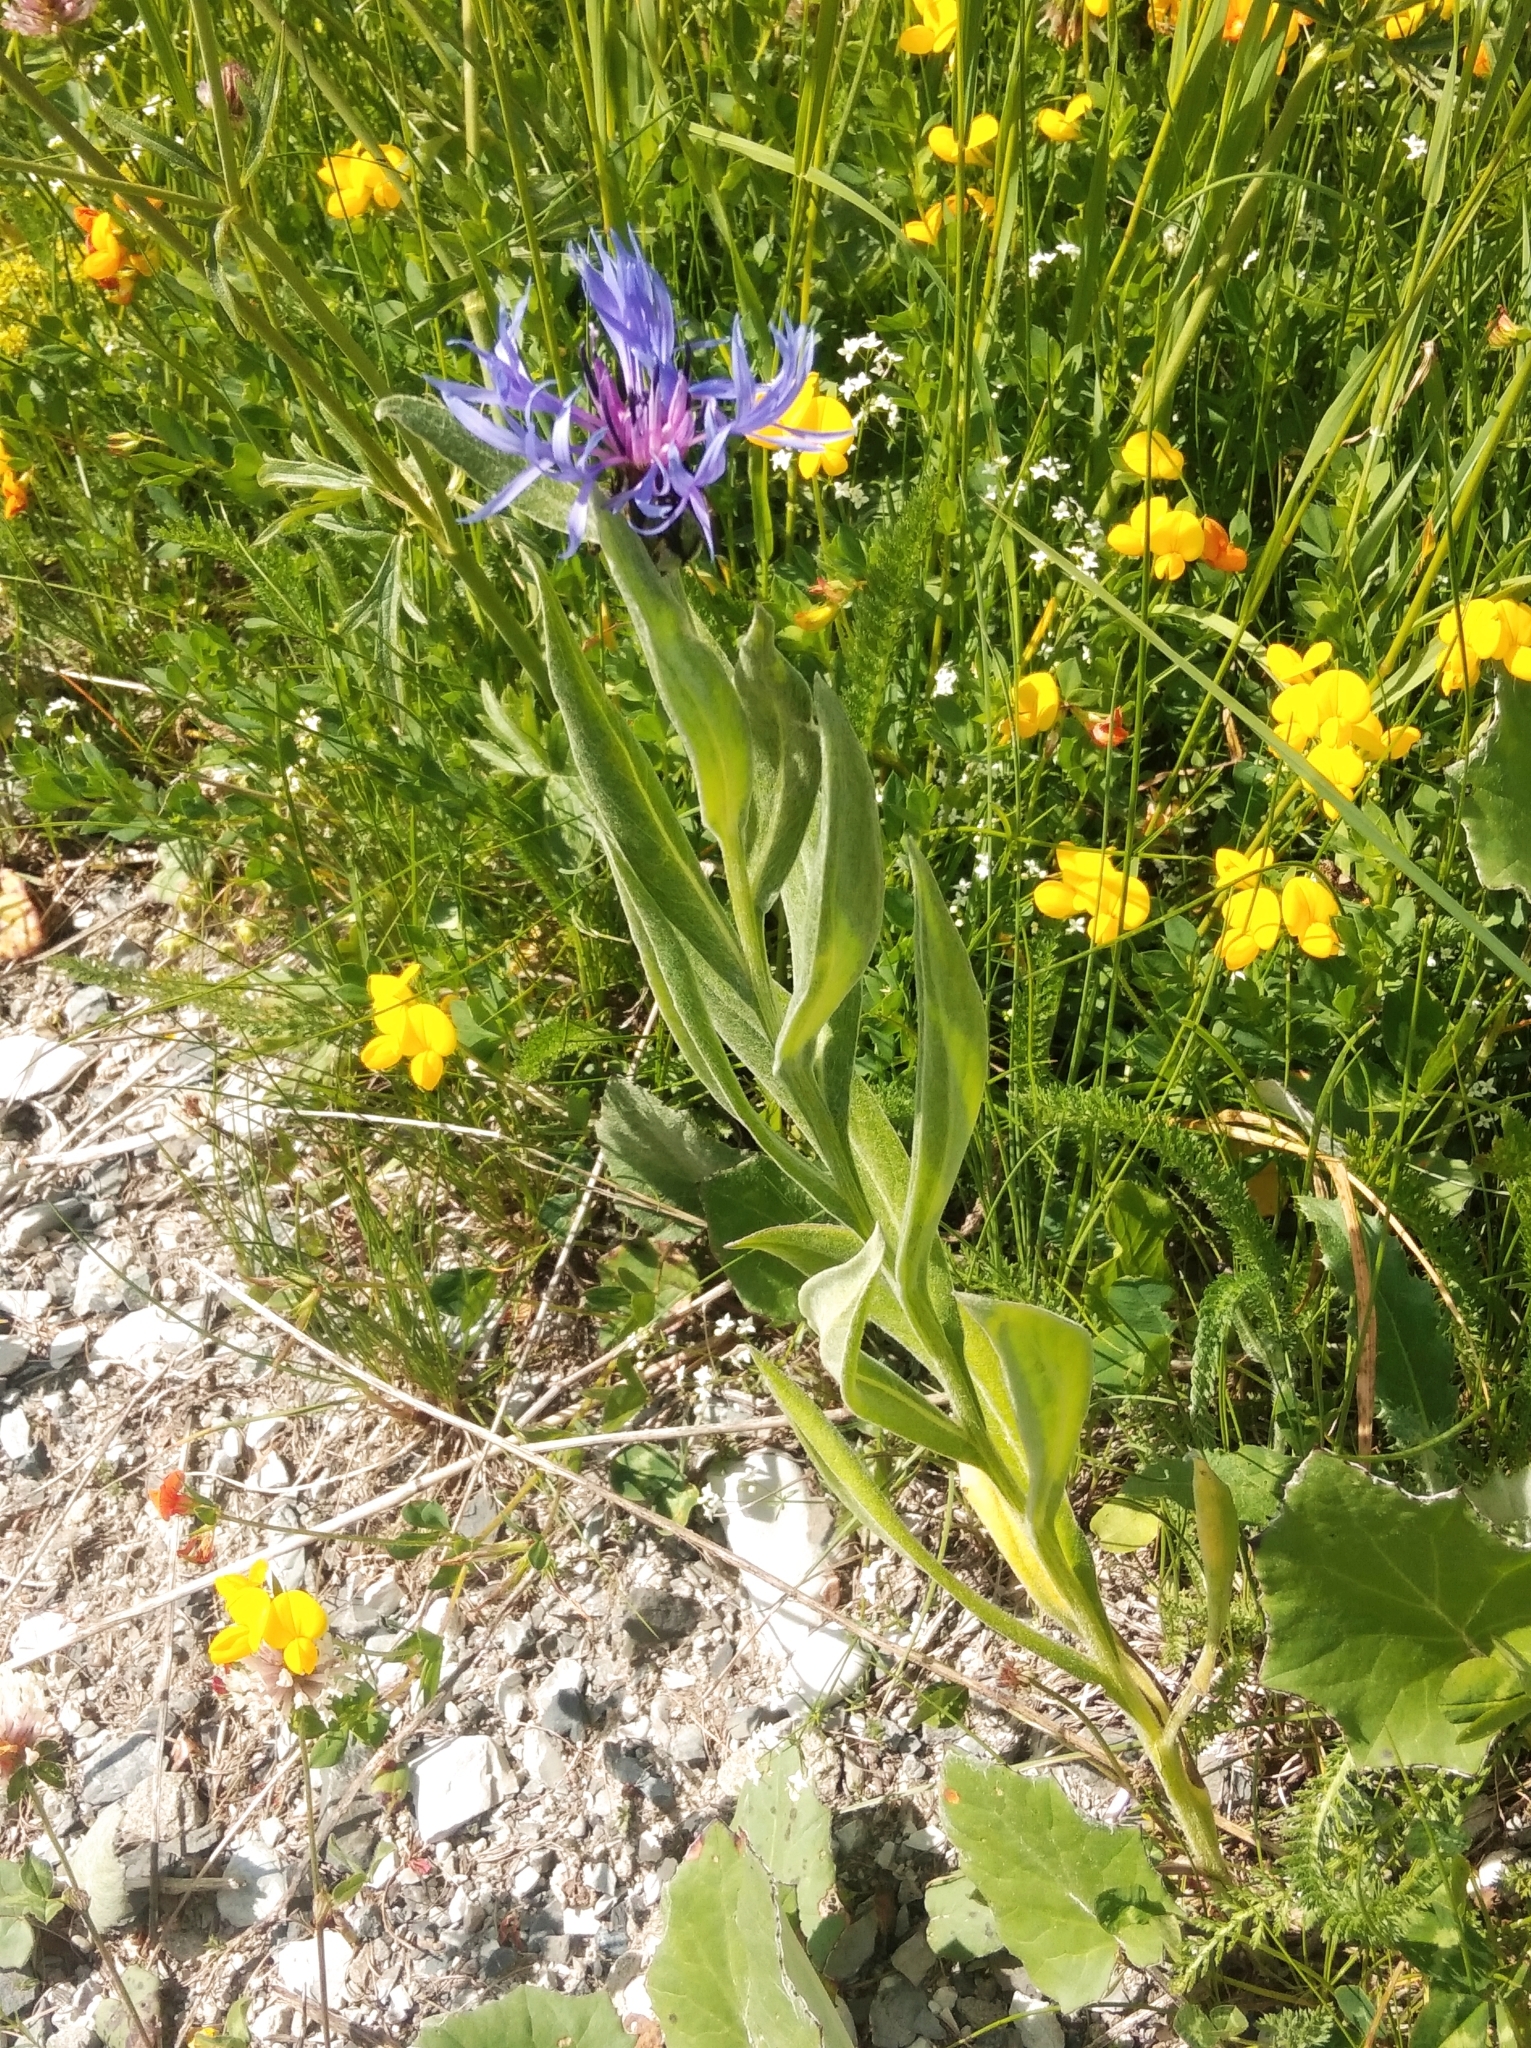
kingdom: Plantae
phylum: Tracheophyta
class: Magnoliopsida
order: Asterales
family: Asteraceae
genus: Centaurea
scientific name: Centaurea montana
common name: Perennial cornflower
